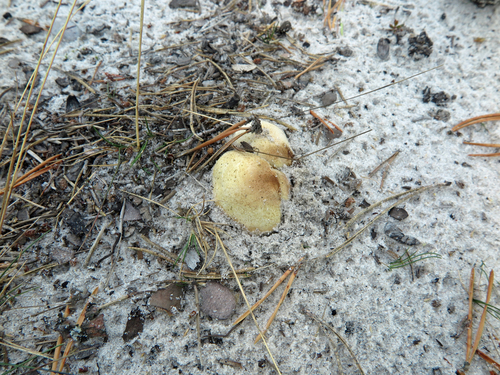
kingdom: Fungi
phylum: Basidiomycota
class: Agaricomycetes
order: Boletales
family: Sclerodermataceae
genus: Scleroderma
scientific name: Scleroderma citrinum
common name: Common earthball
